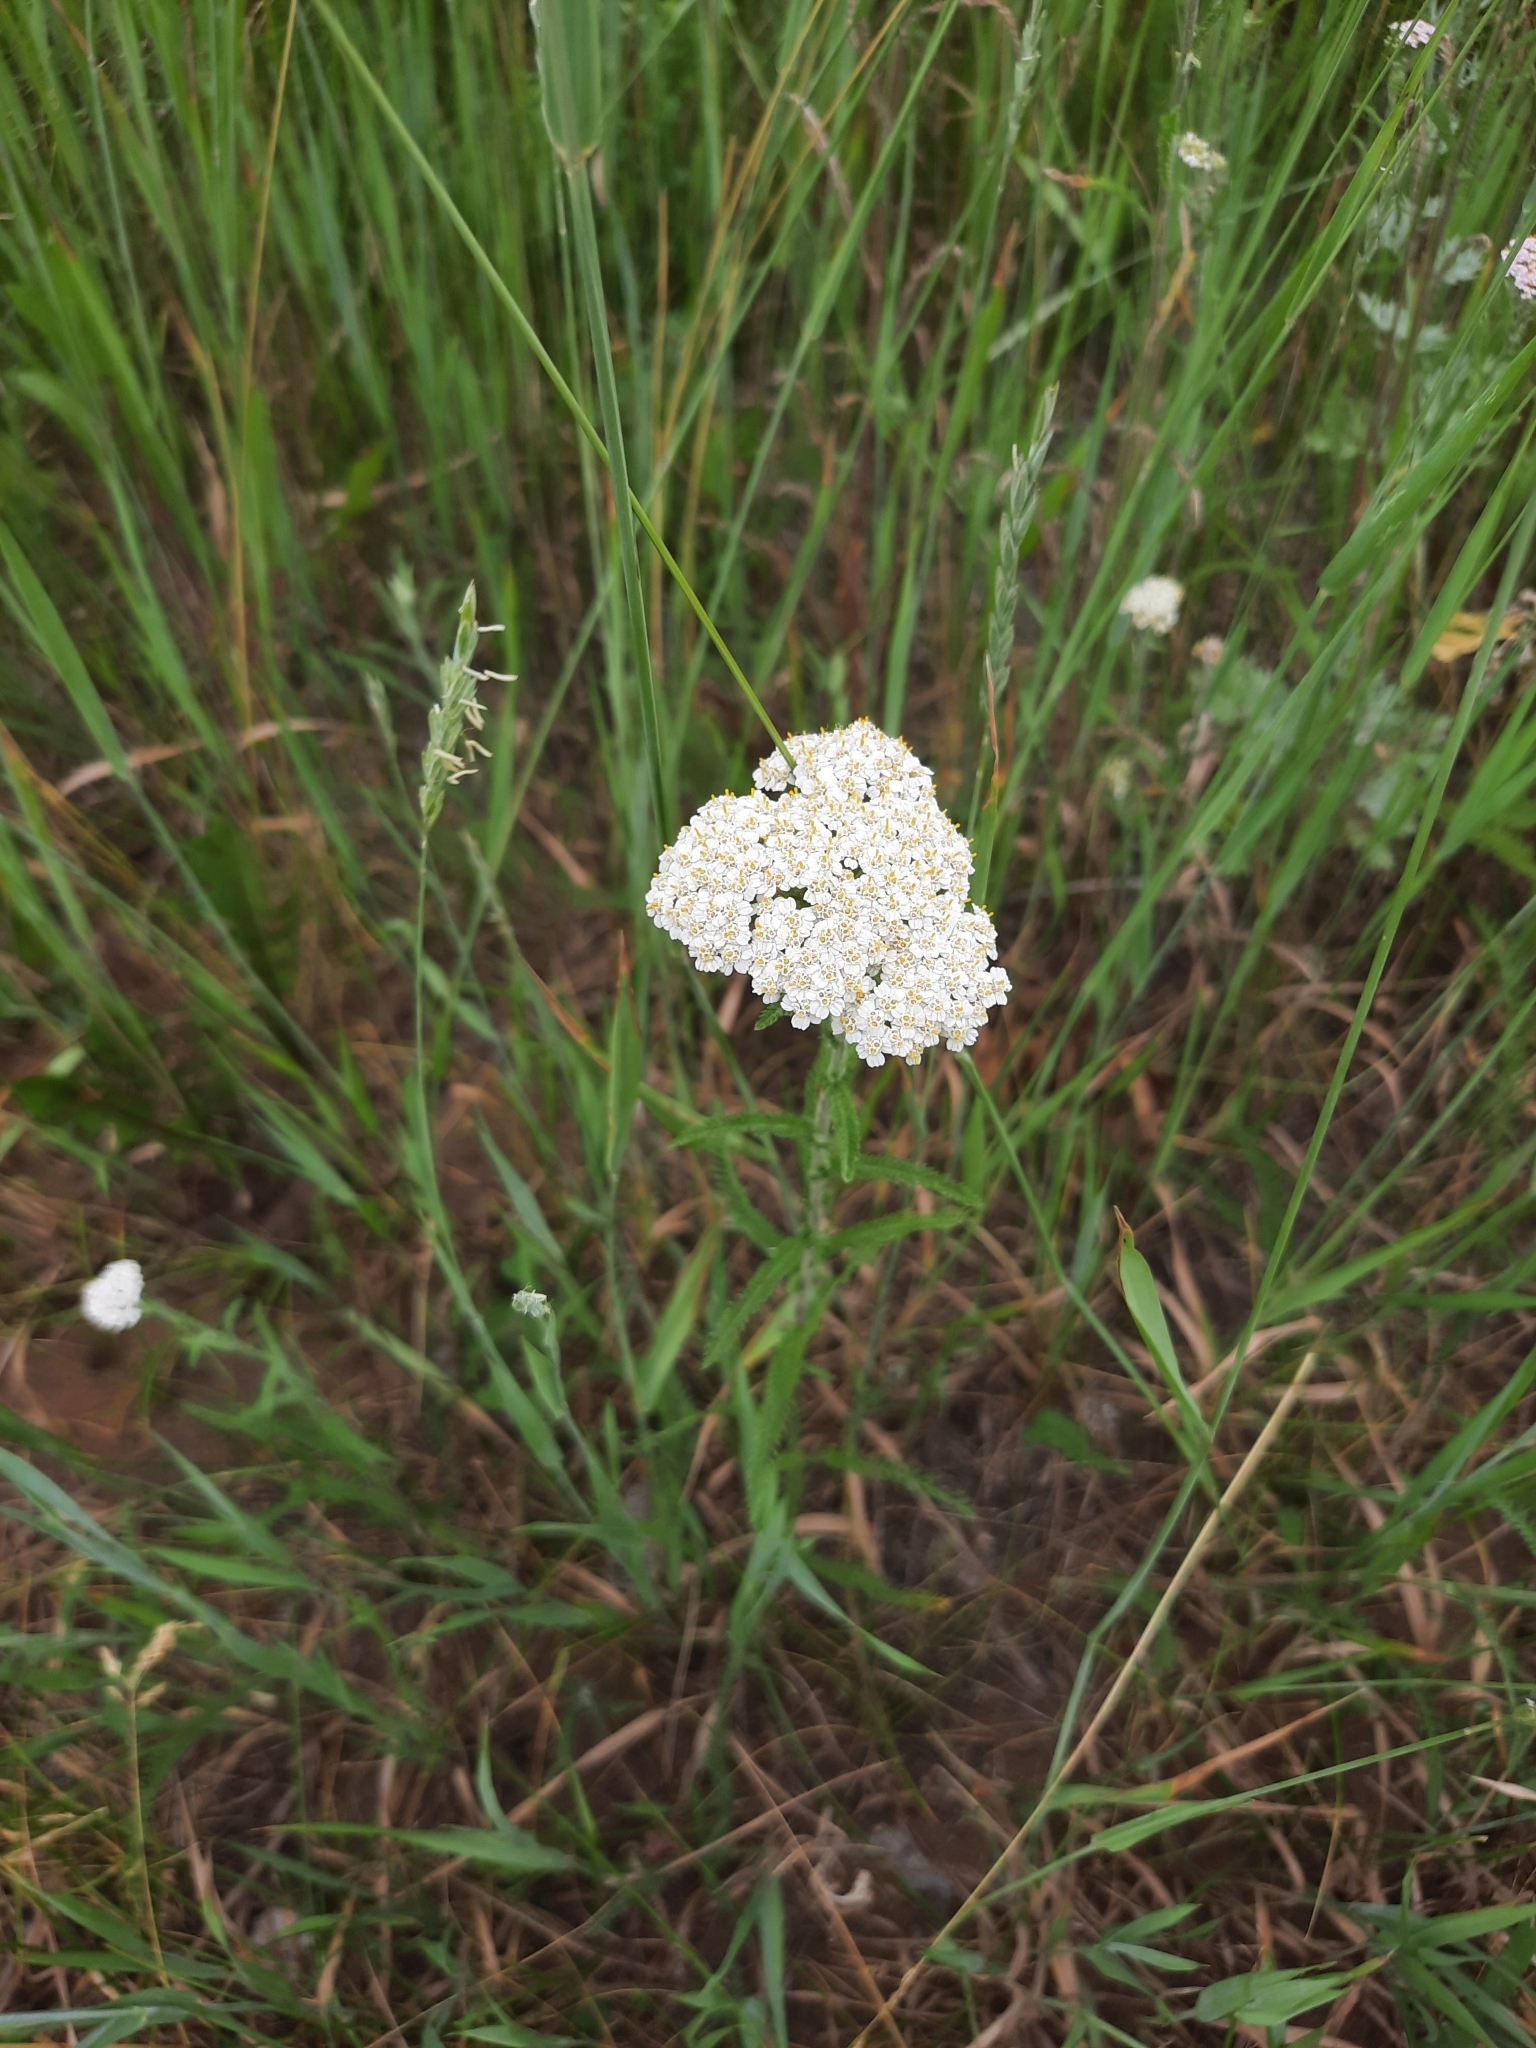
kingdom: Plantae
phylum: Tracheophyta
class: Magnoliopsida
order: Asterales
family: Asteraceae
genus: Achillea
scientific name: Achillea millefolium
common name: Yarrow
